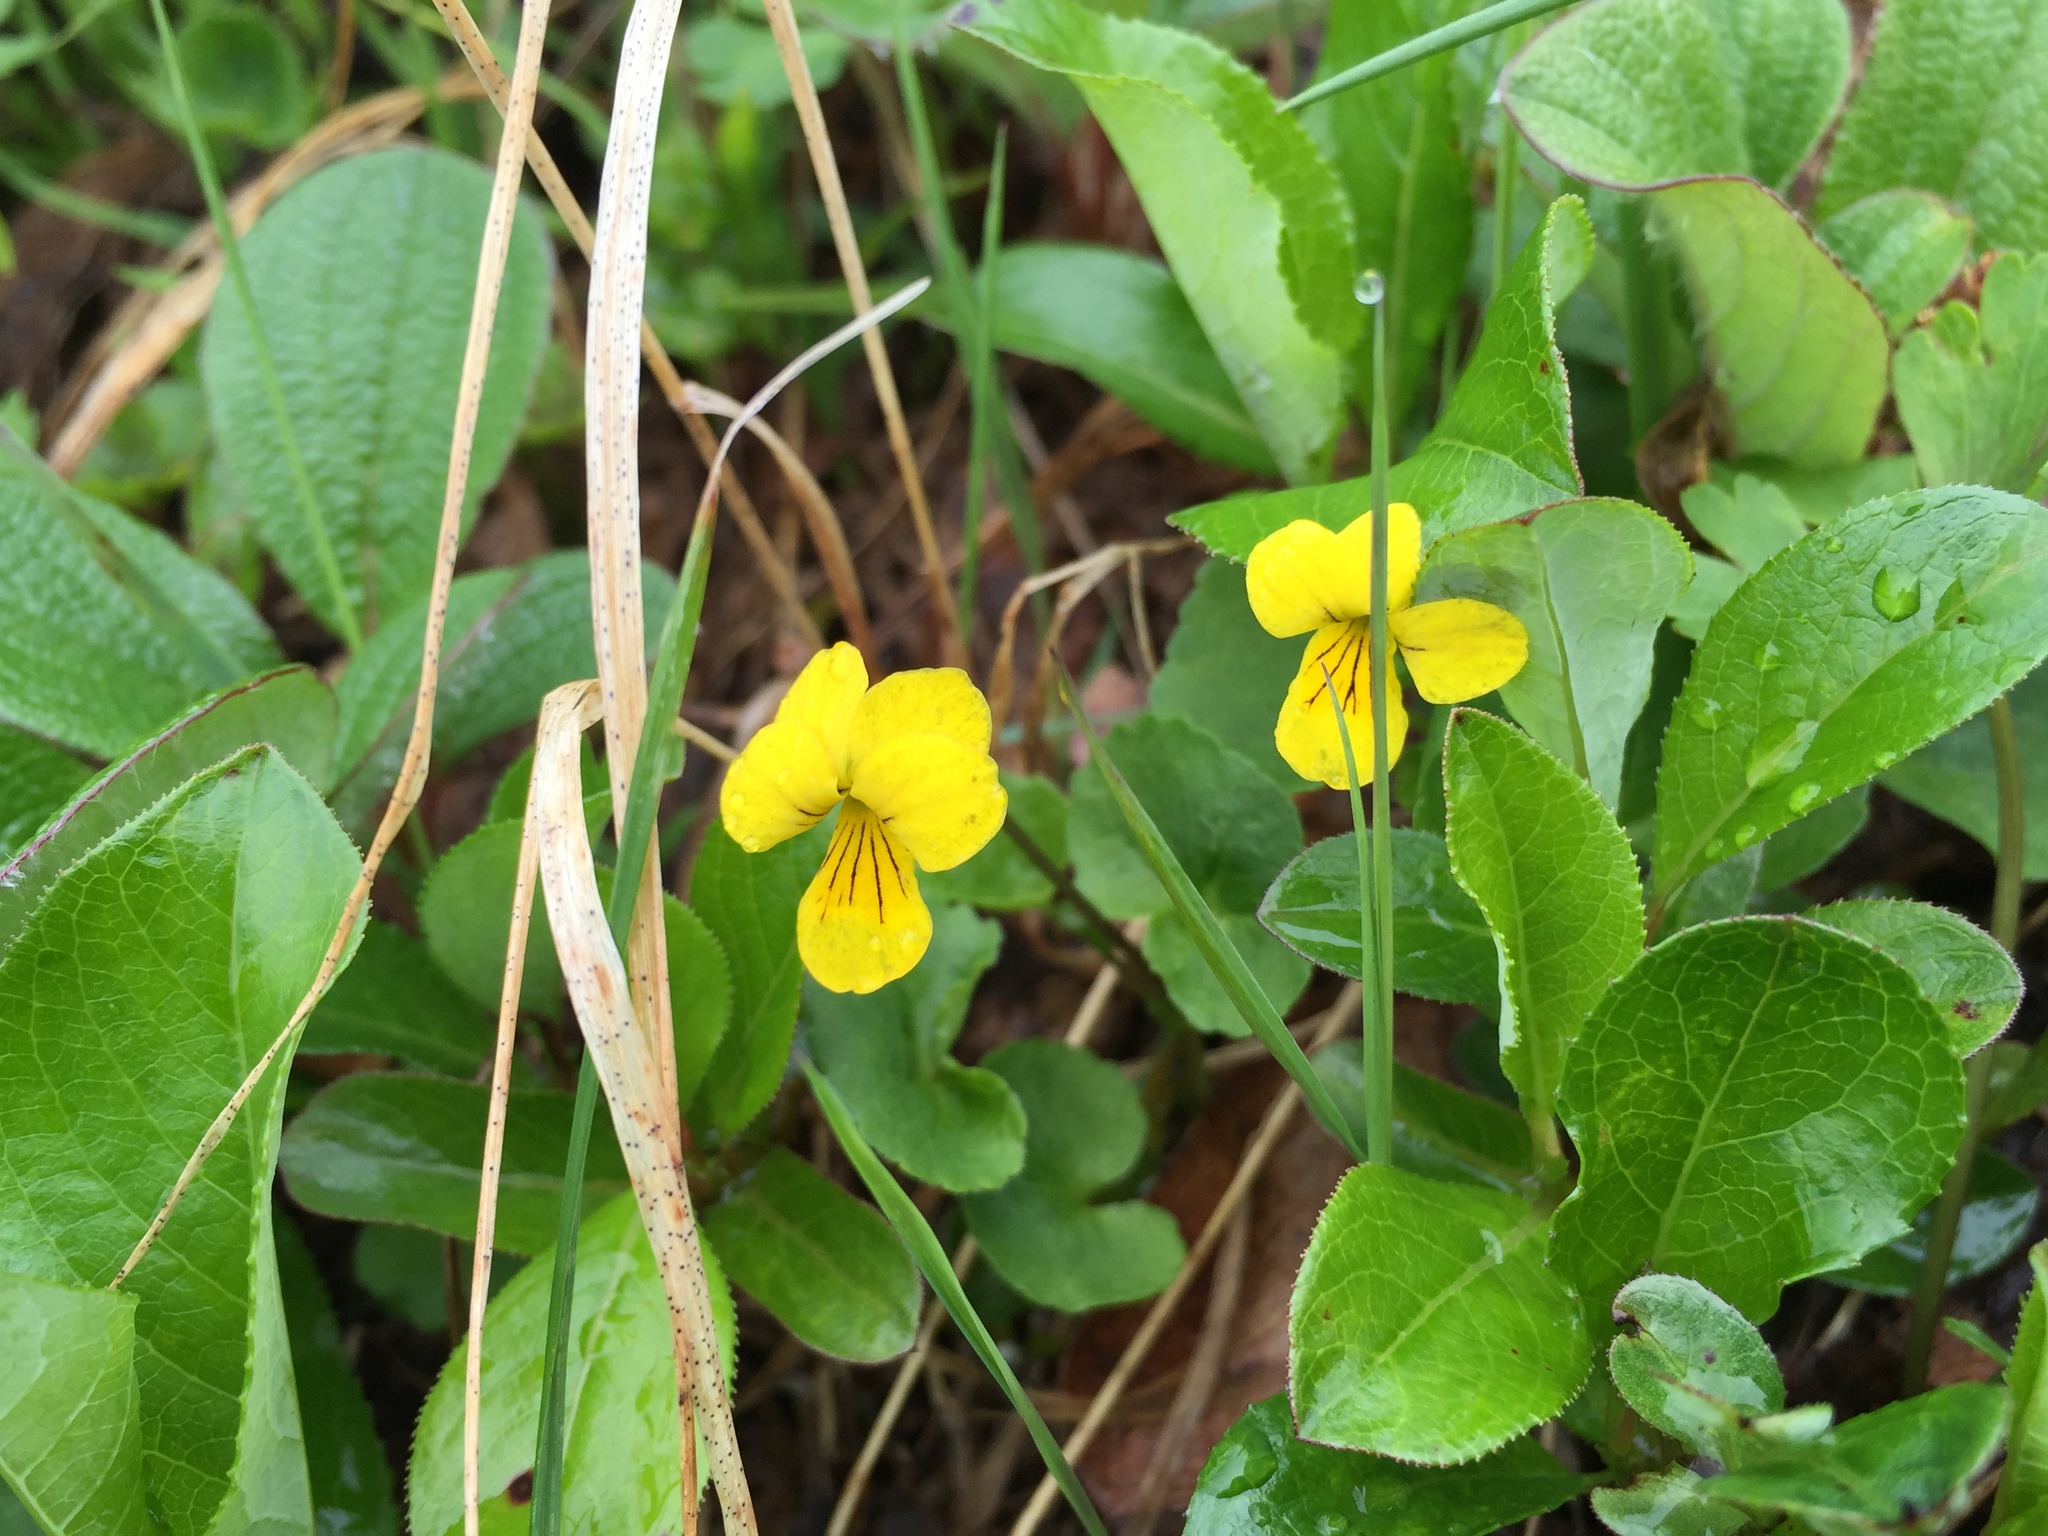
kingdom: Plantae
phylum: Tracheophyta
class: Magnoliopsida
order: Malpighiales
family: Violaceae
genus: Viola
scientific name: Viola biflora
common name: Alpine yellow violet
